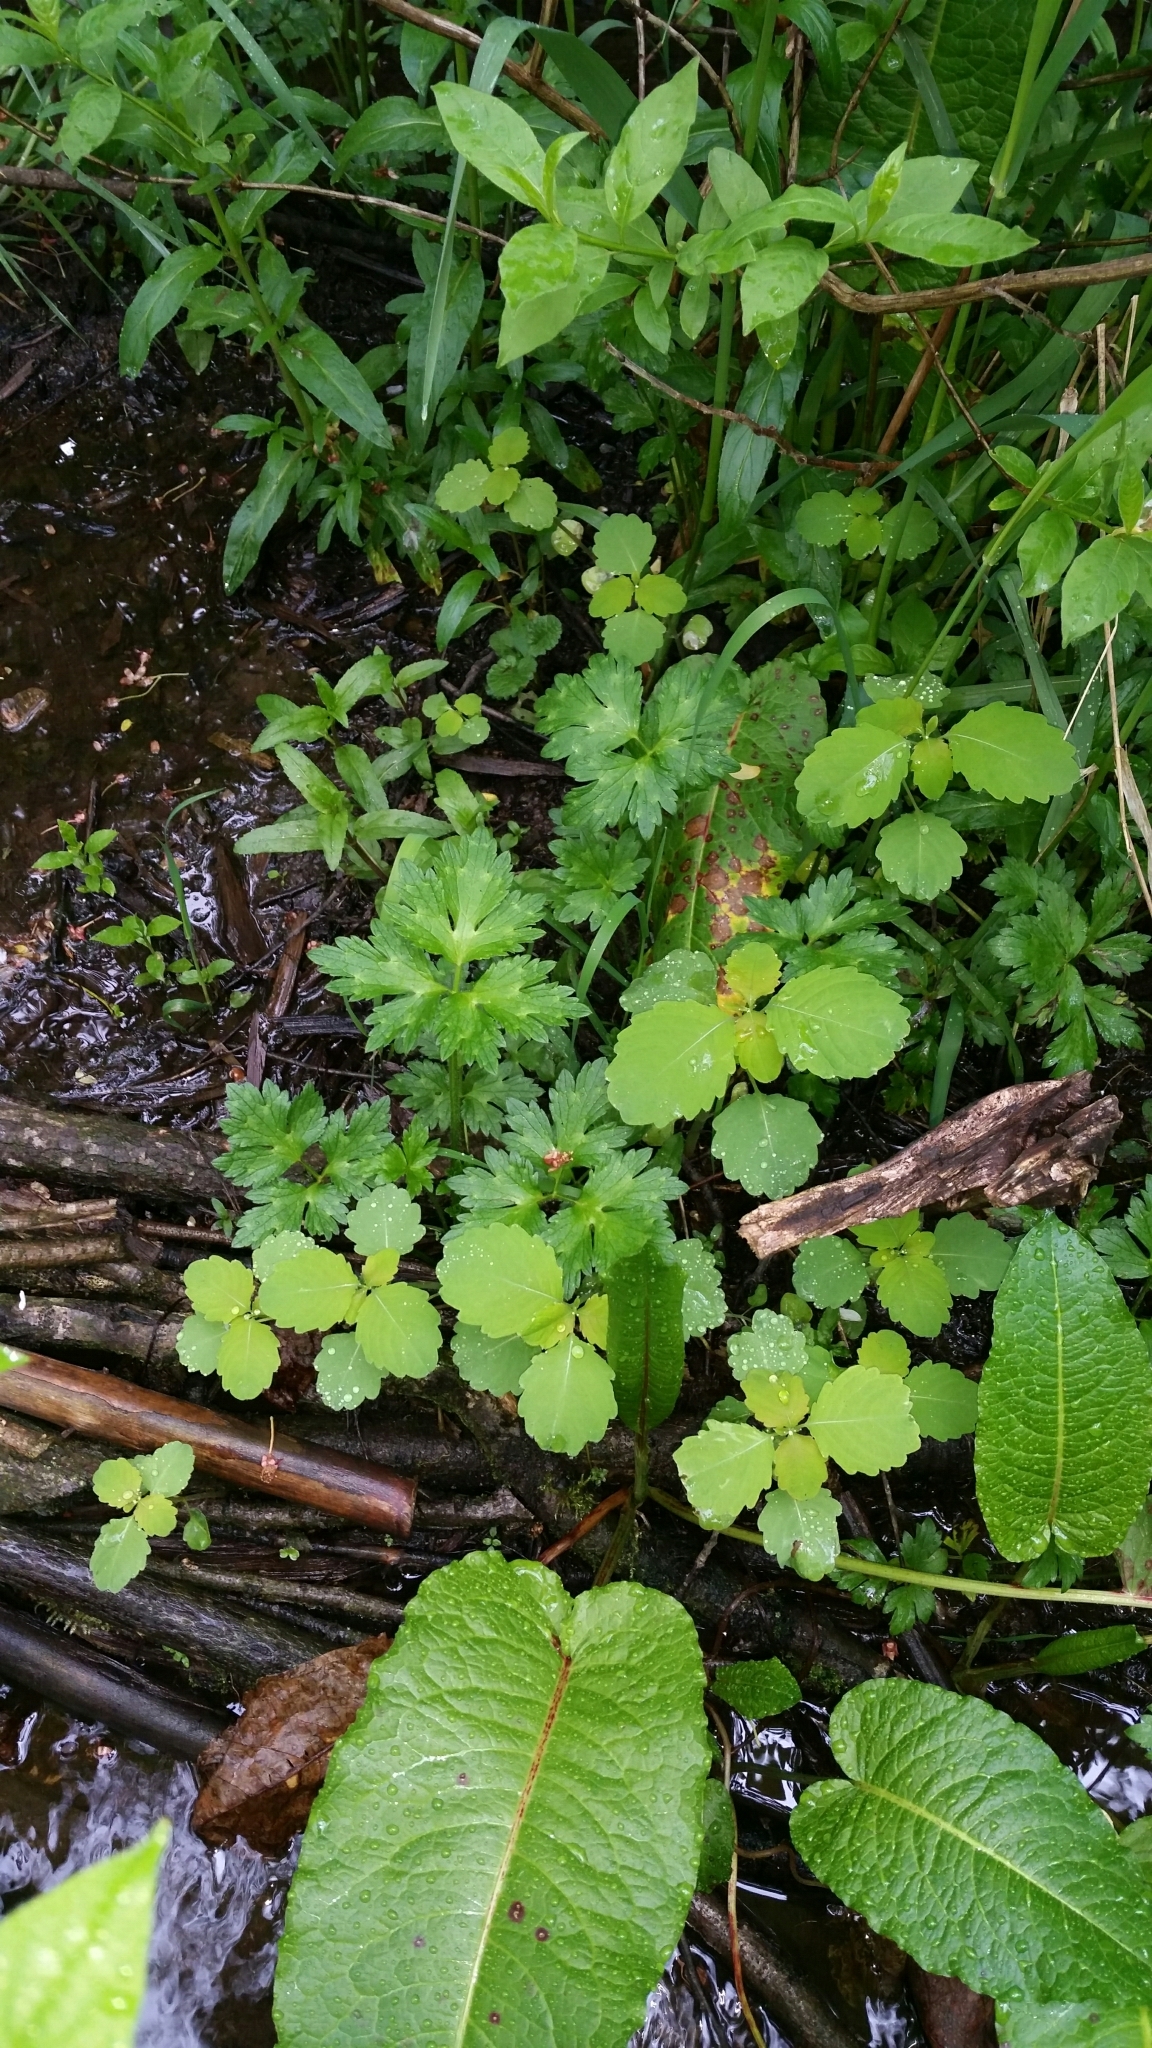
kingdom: Plantae
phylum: Tracheophyta
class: Magnoliopsida
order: Ericales
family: Balsaminaceae
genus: Impatiens
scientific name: Impatiens capensis
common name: Orange balsam
